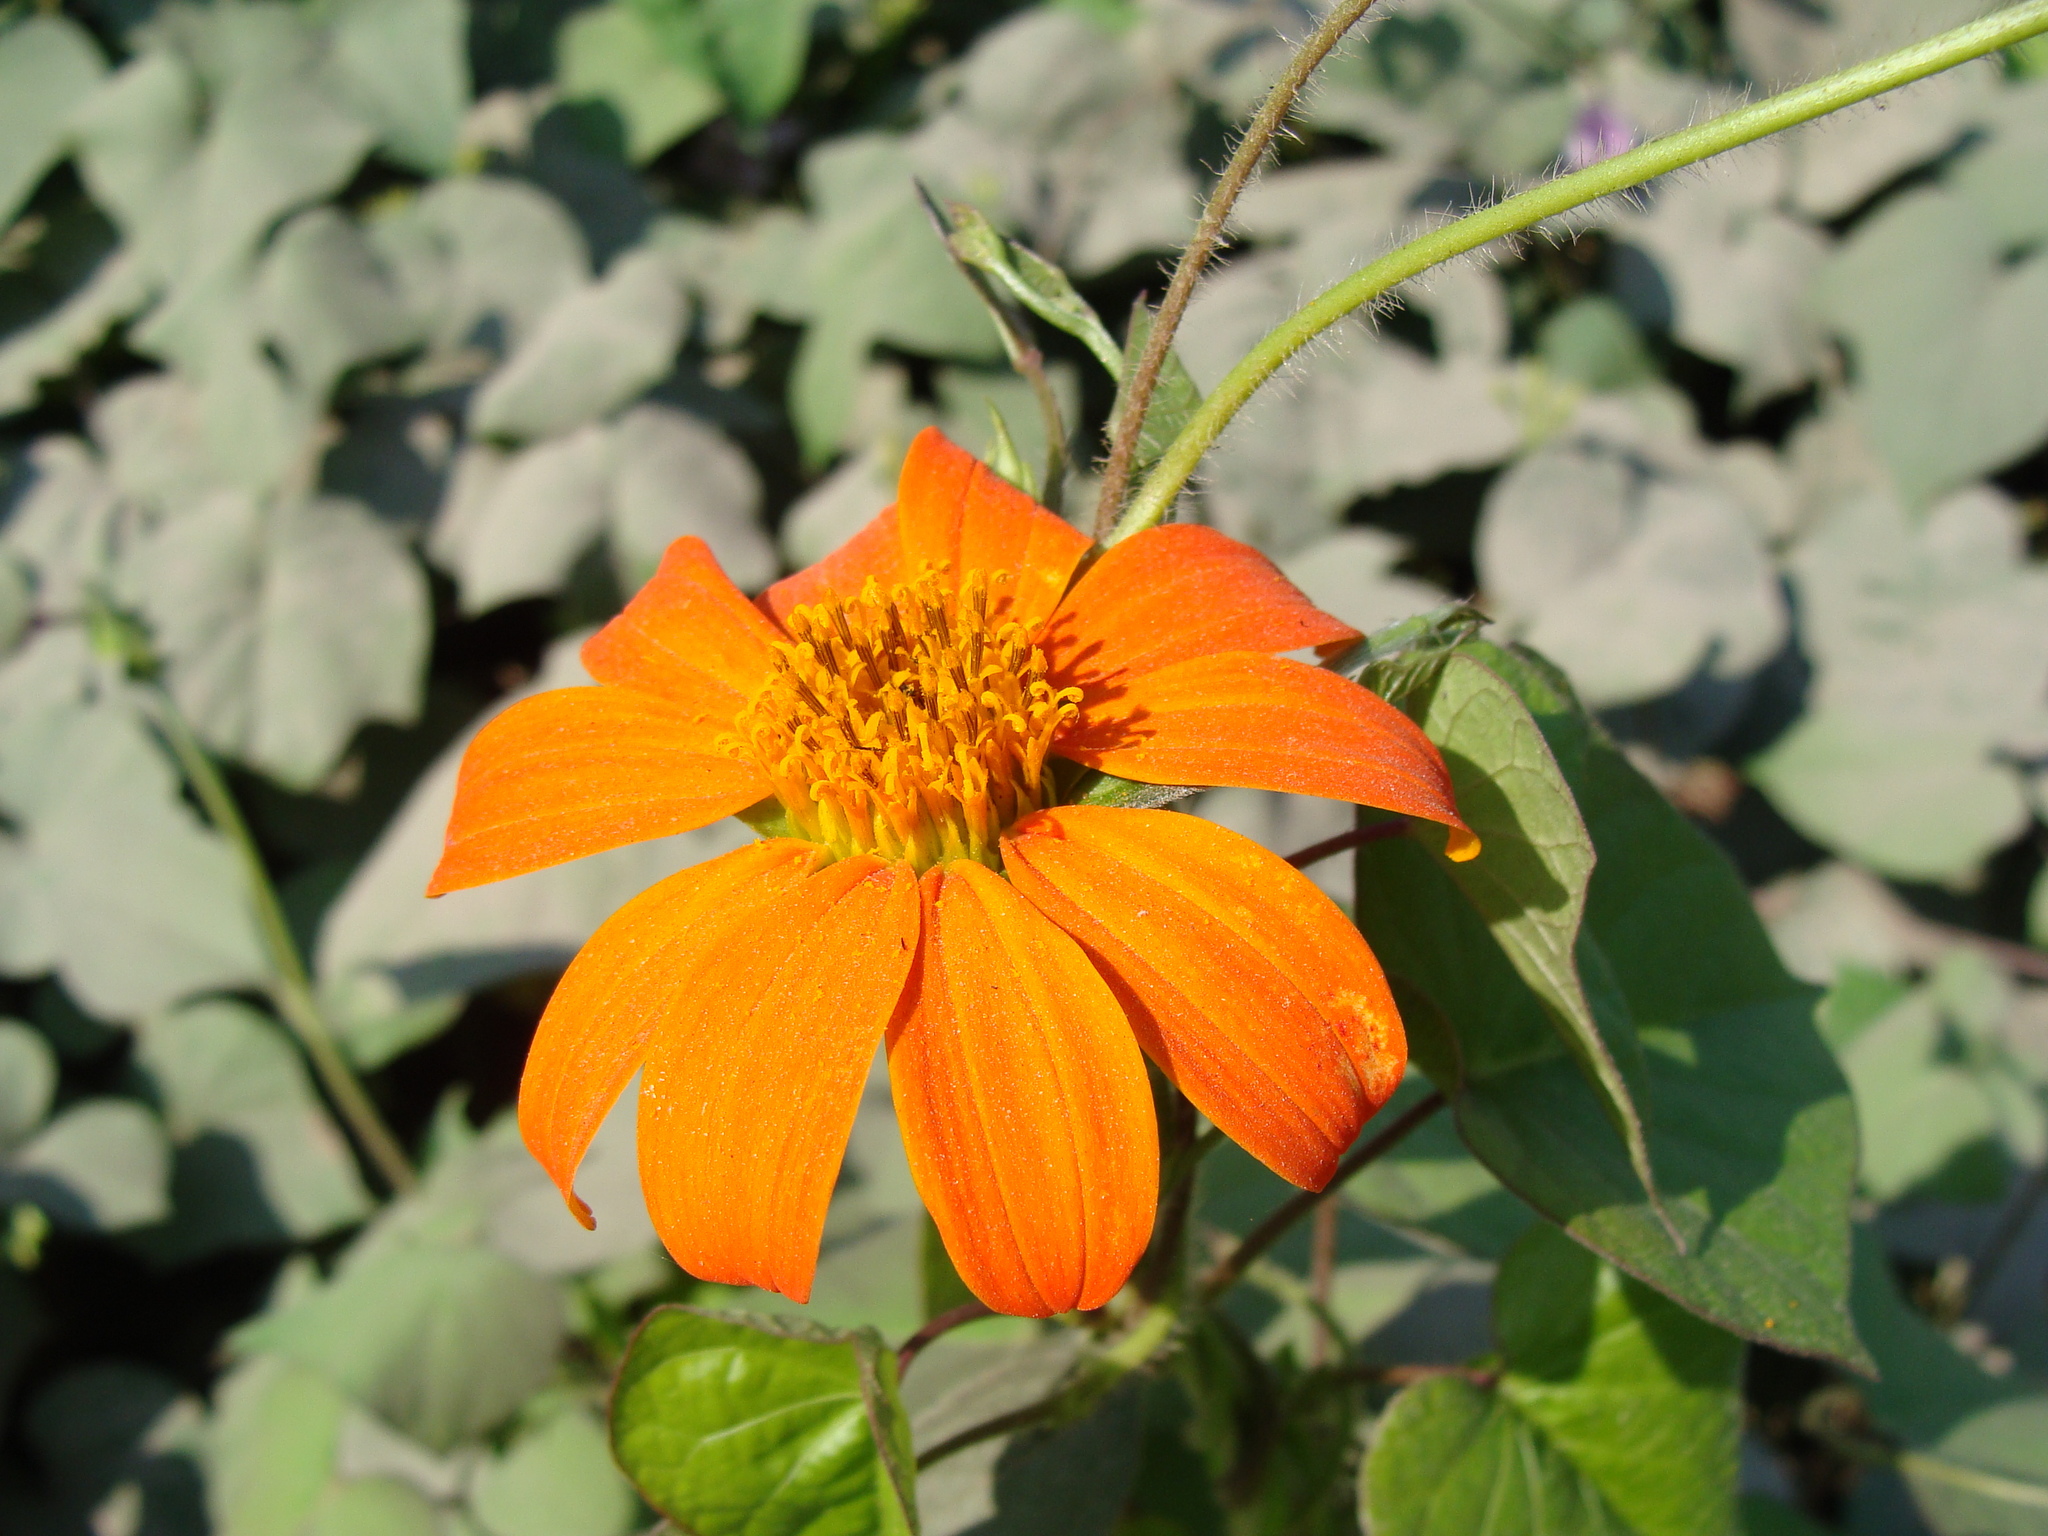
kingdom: Plantae
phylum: Tracheophyta
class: Magnoliopsida
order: Asterales
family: Asteraceae
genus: Tithonia
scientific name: Tithonia rotundifolia
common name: Sunflower
